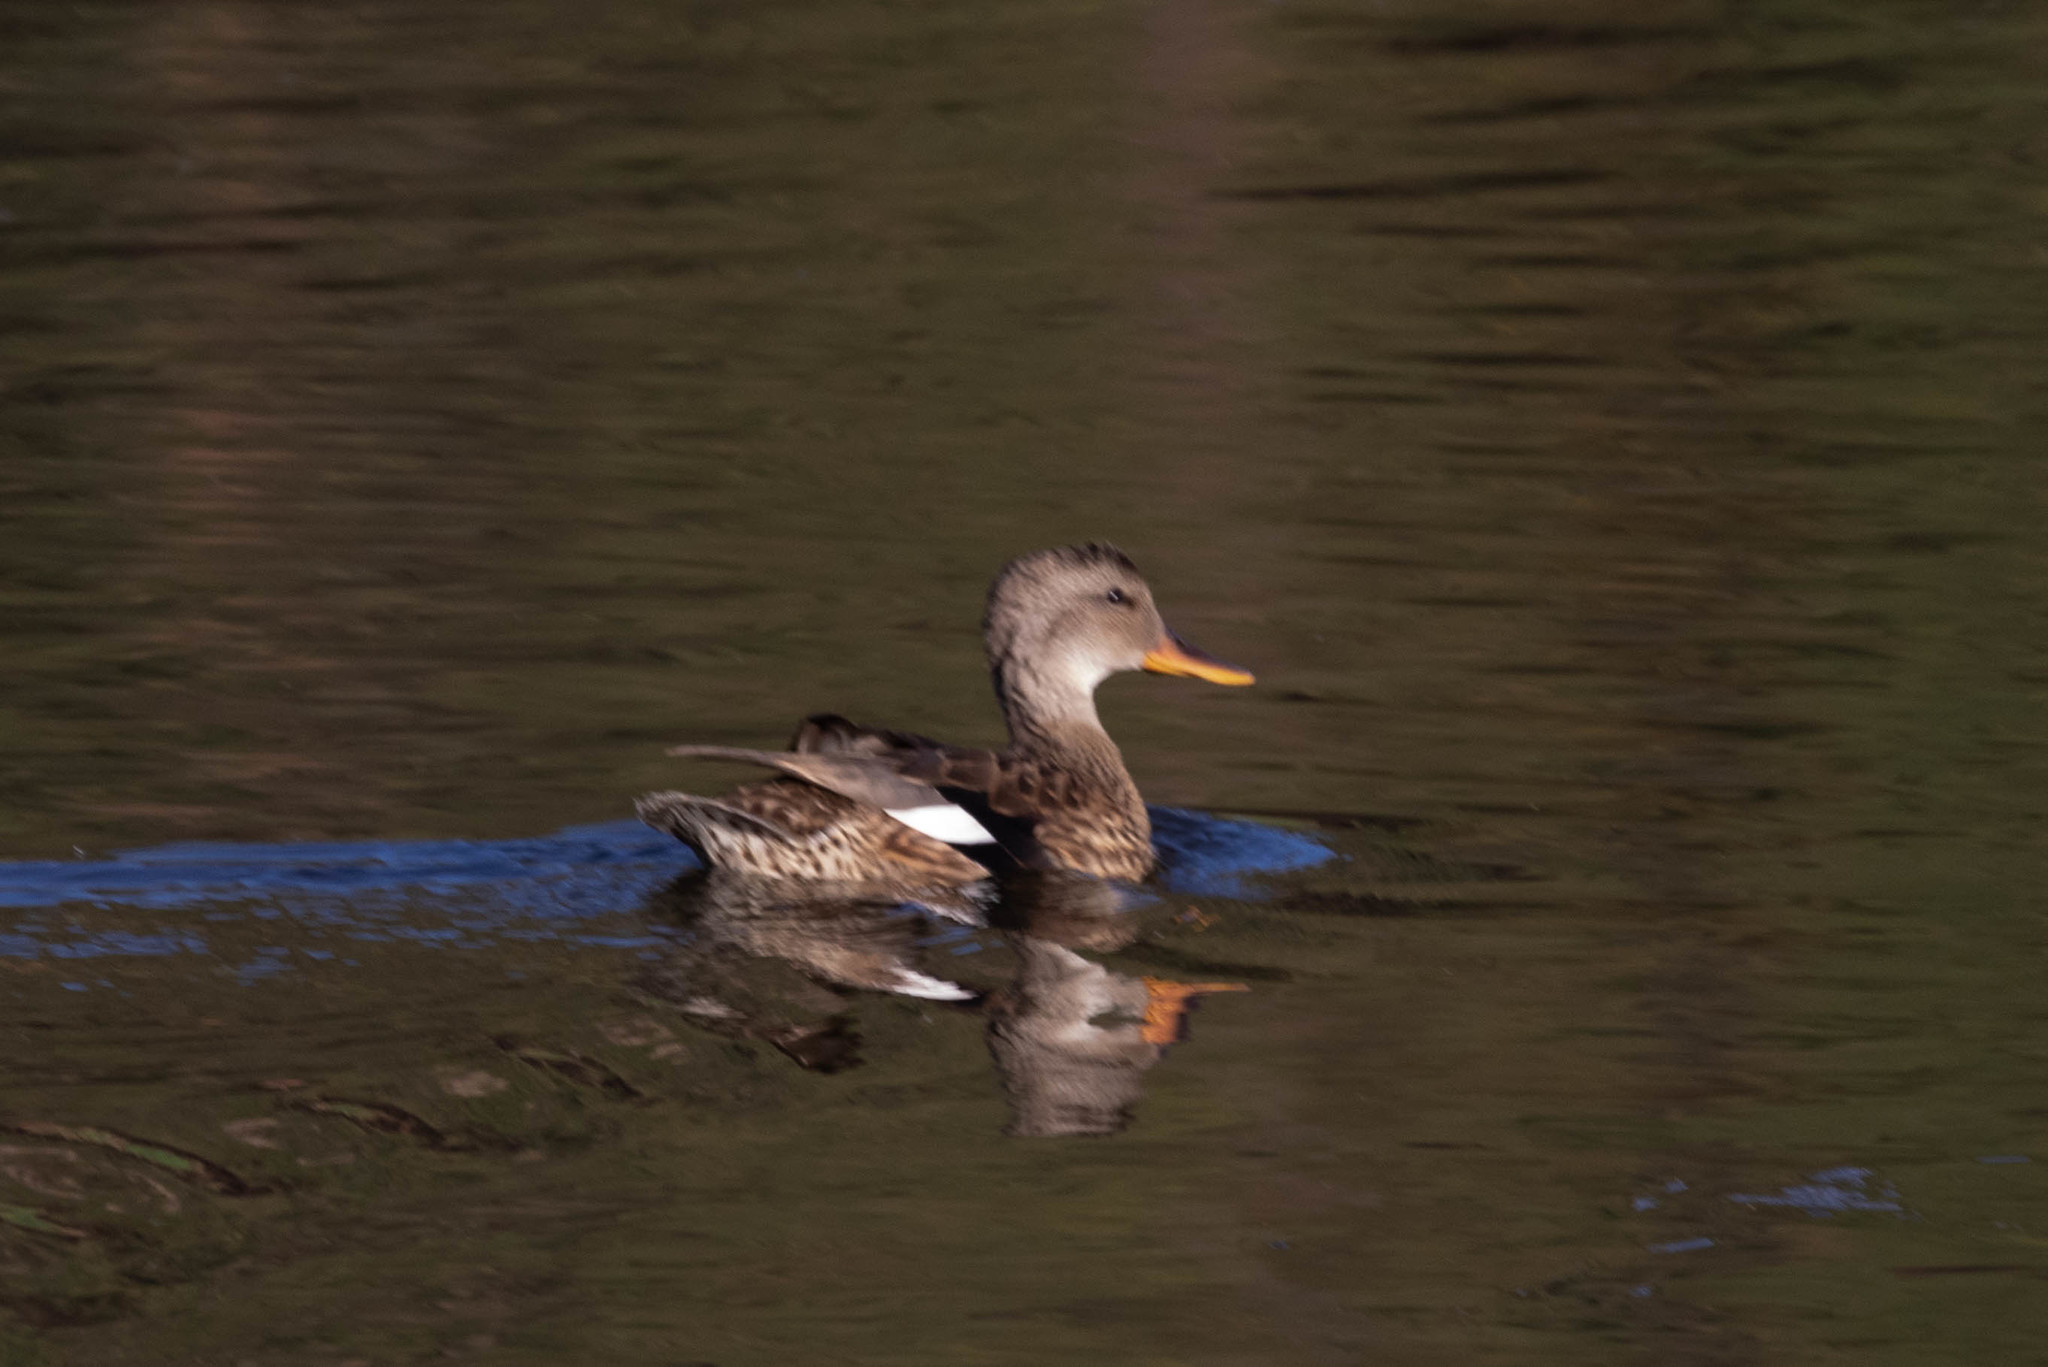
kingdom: Animalia
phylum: Chordata
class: Aves
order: Anseriformes
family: Anatidae
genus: Mareca
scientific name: Mareca strepera
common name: Gadwall
